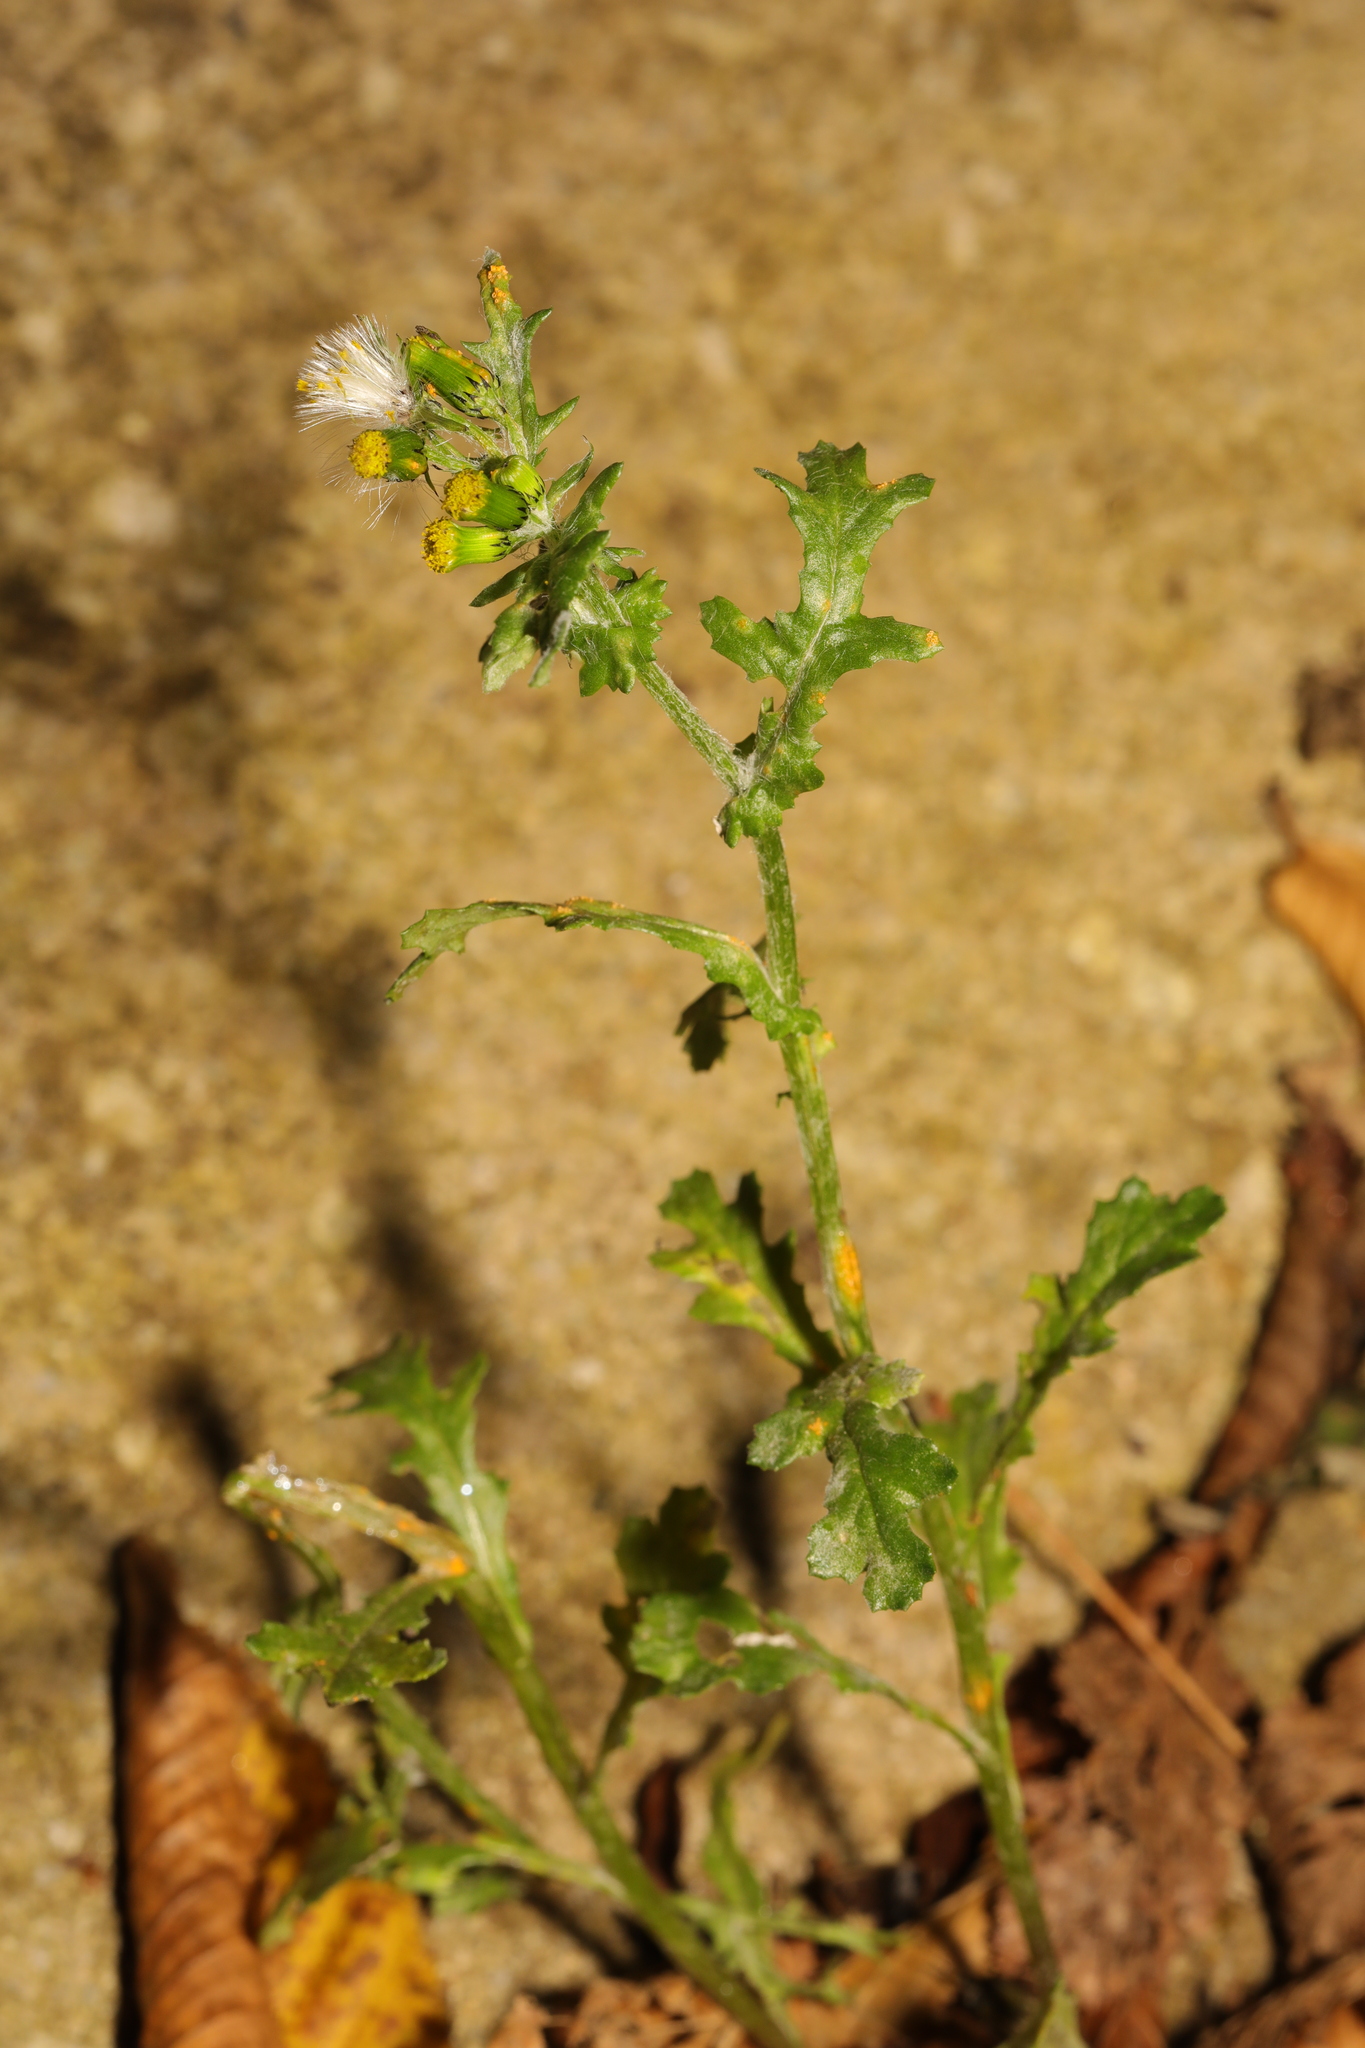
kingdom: Plantae
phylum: Tracheophyta
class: Magnoliopsida
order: Asterales
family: Asteraceae
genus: Senecio
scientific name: Senecio vulgaris
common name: Old-man-in-the-spring
